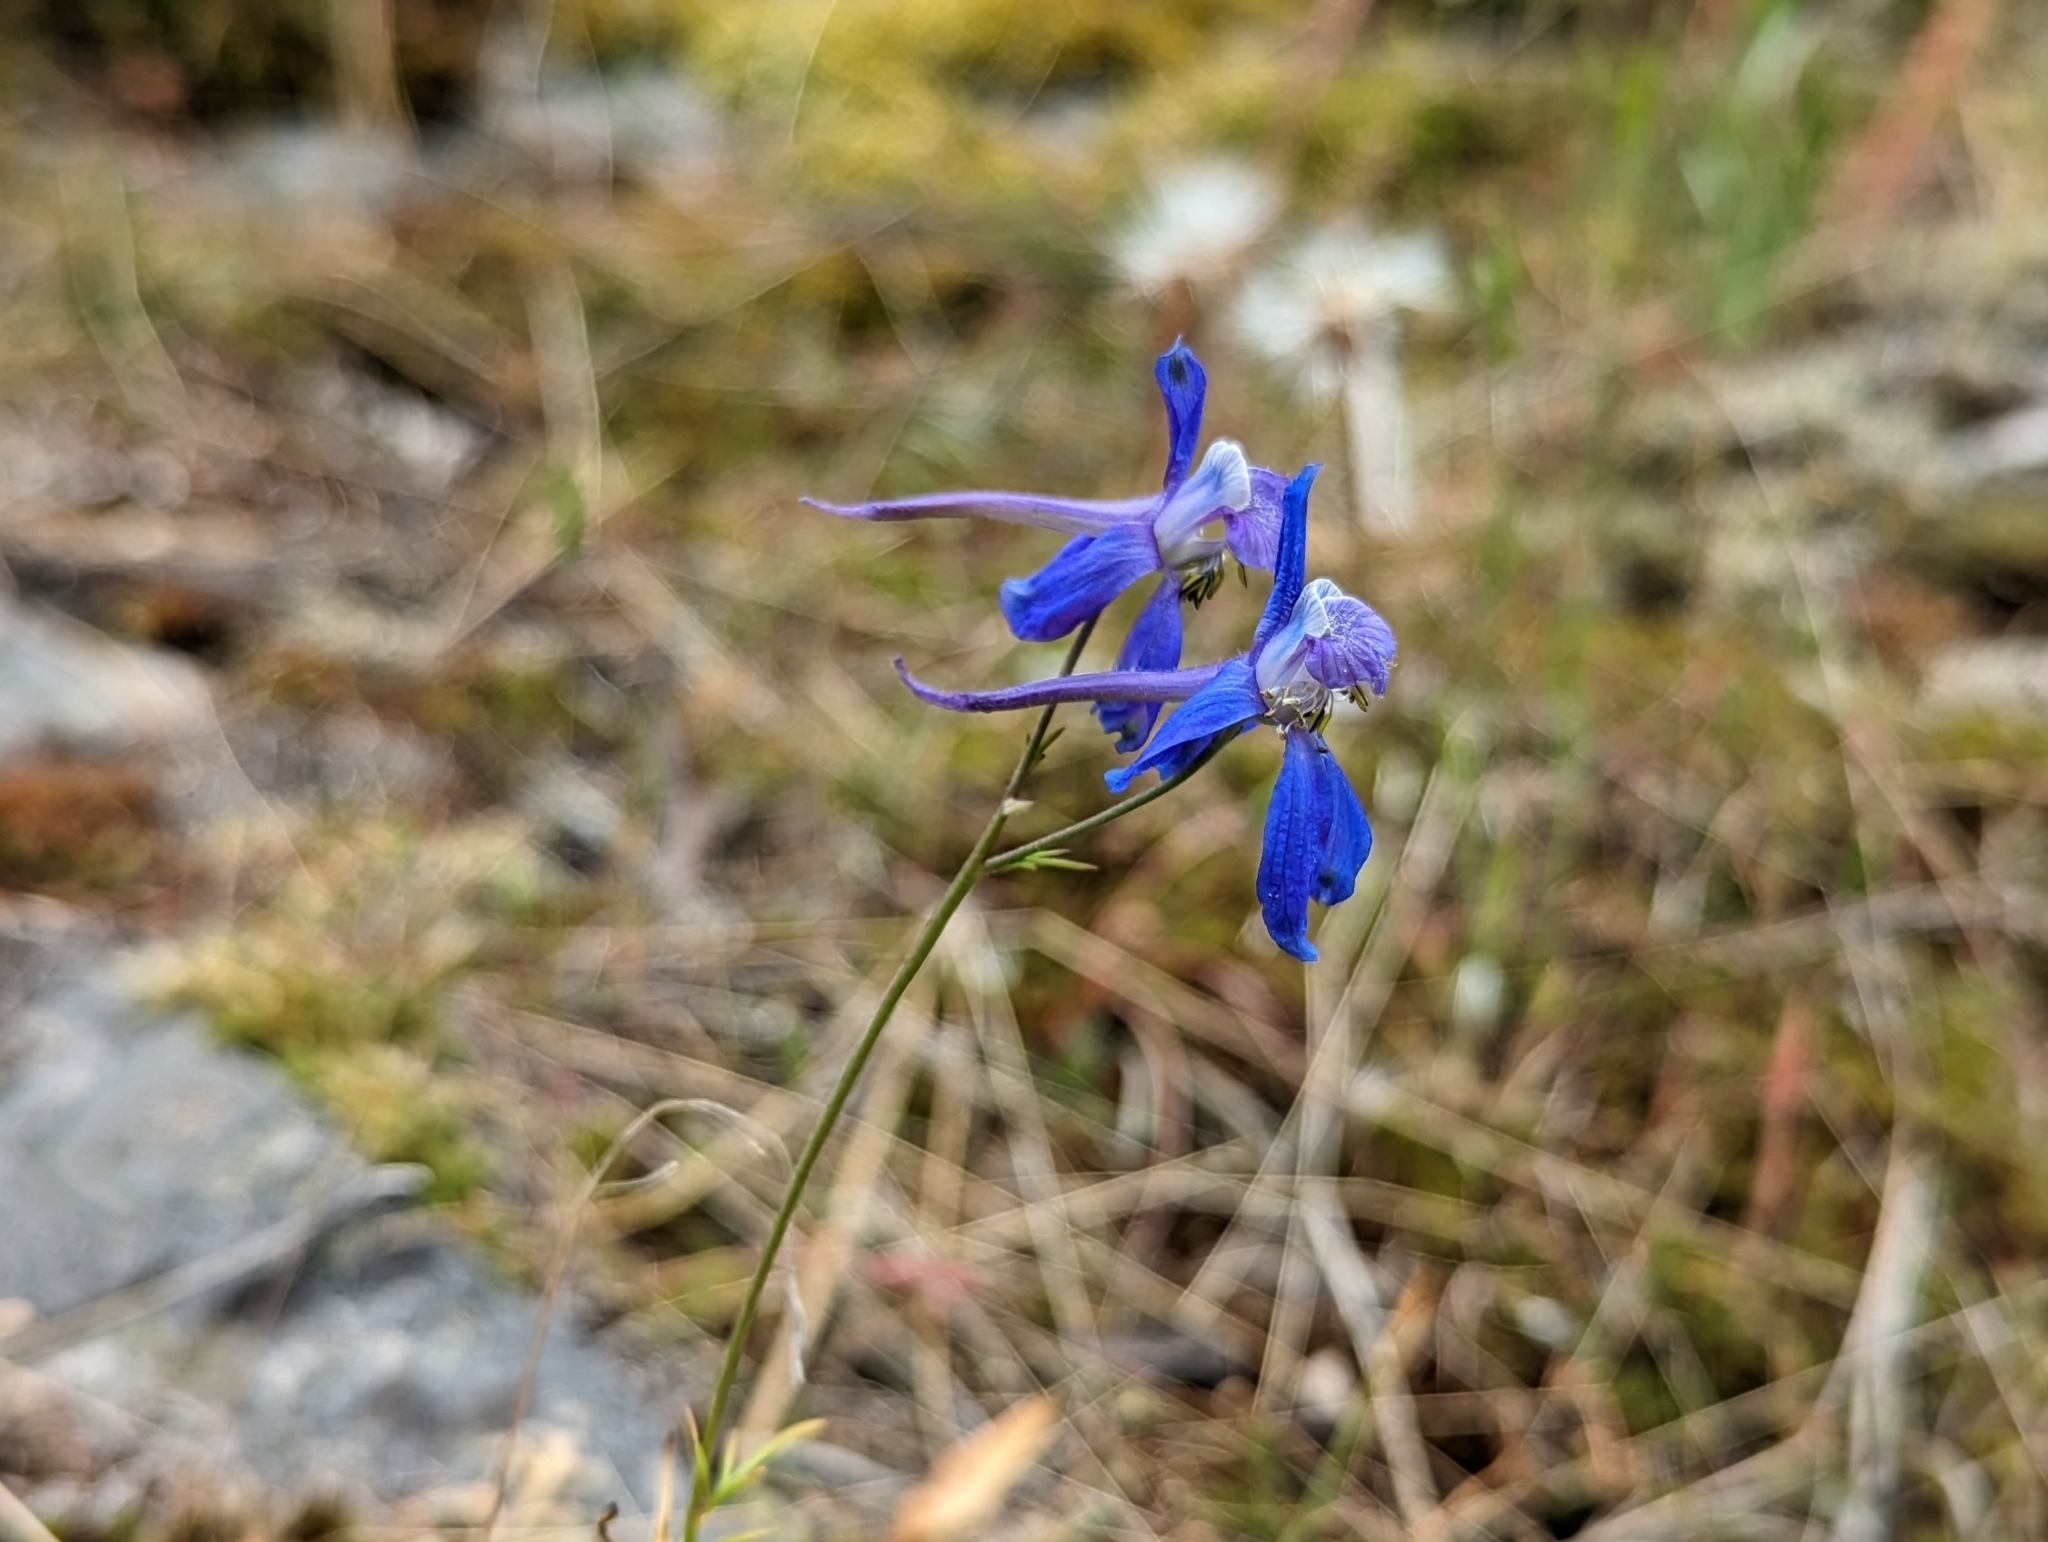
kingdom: Plantae
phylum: Tracheophyta
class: Magnoliopsida
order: Ranunculales
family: Ranunculaceae
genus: Delphinium
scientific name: Delphinium nuttallianum
